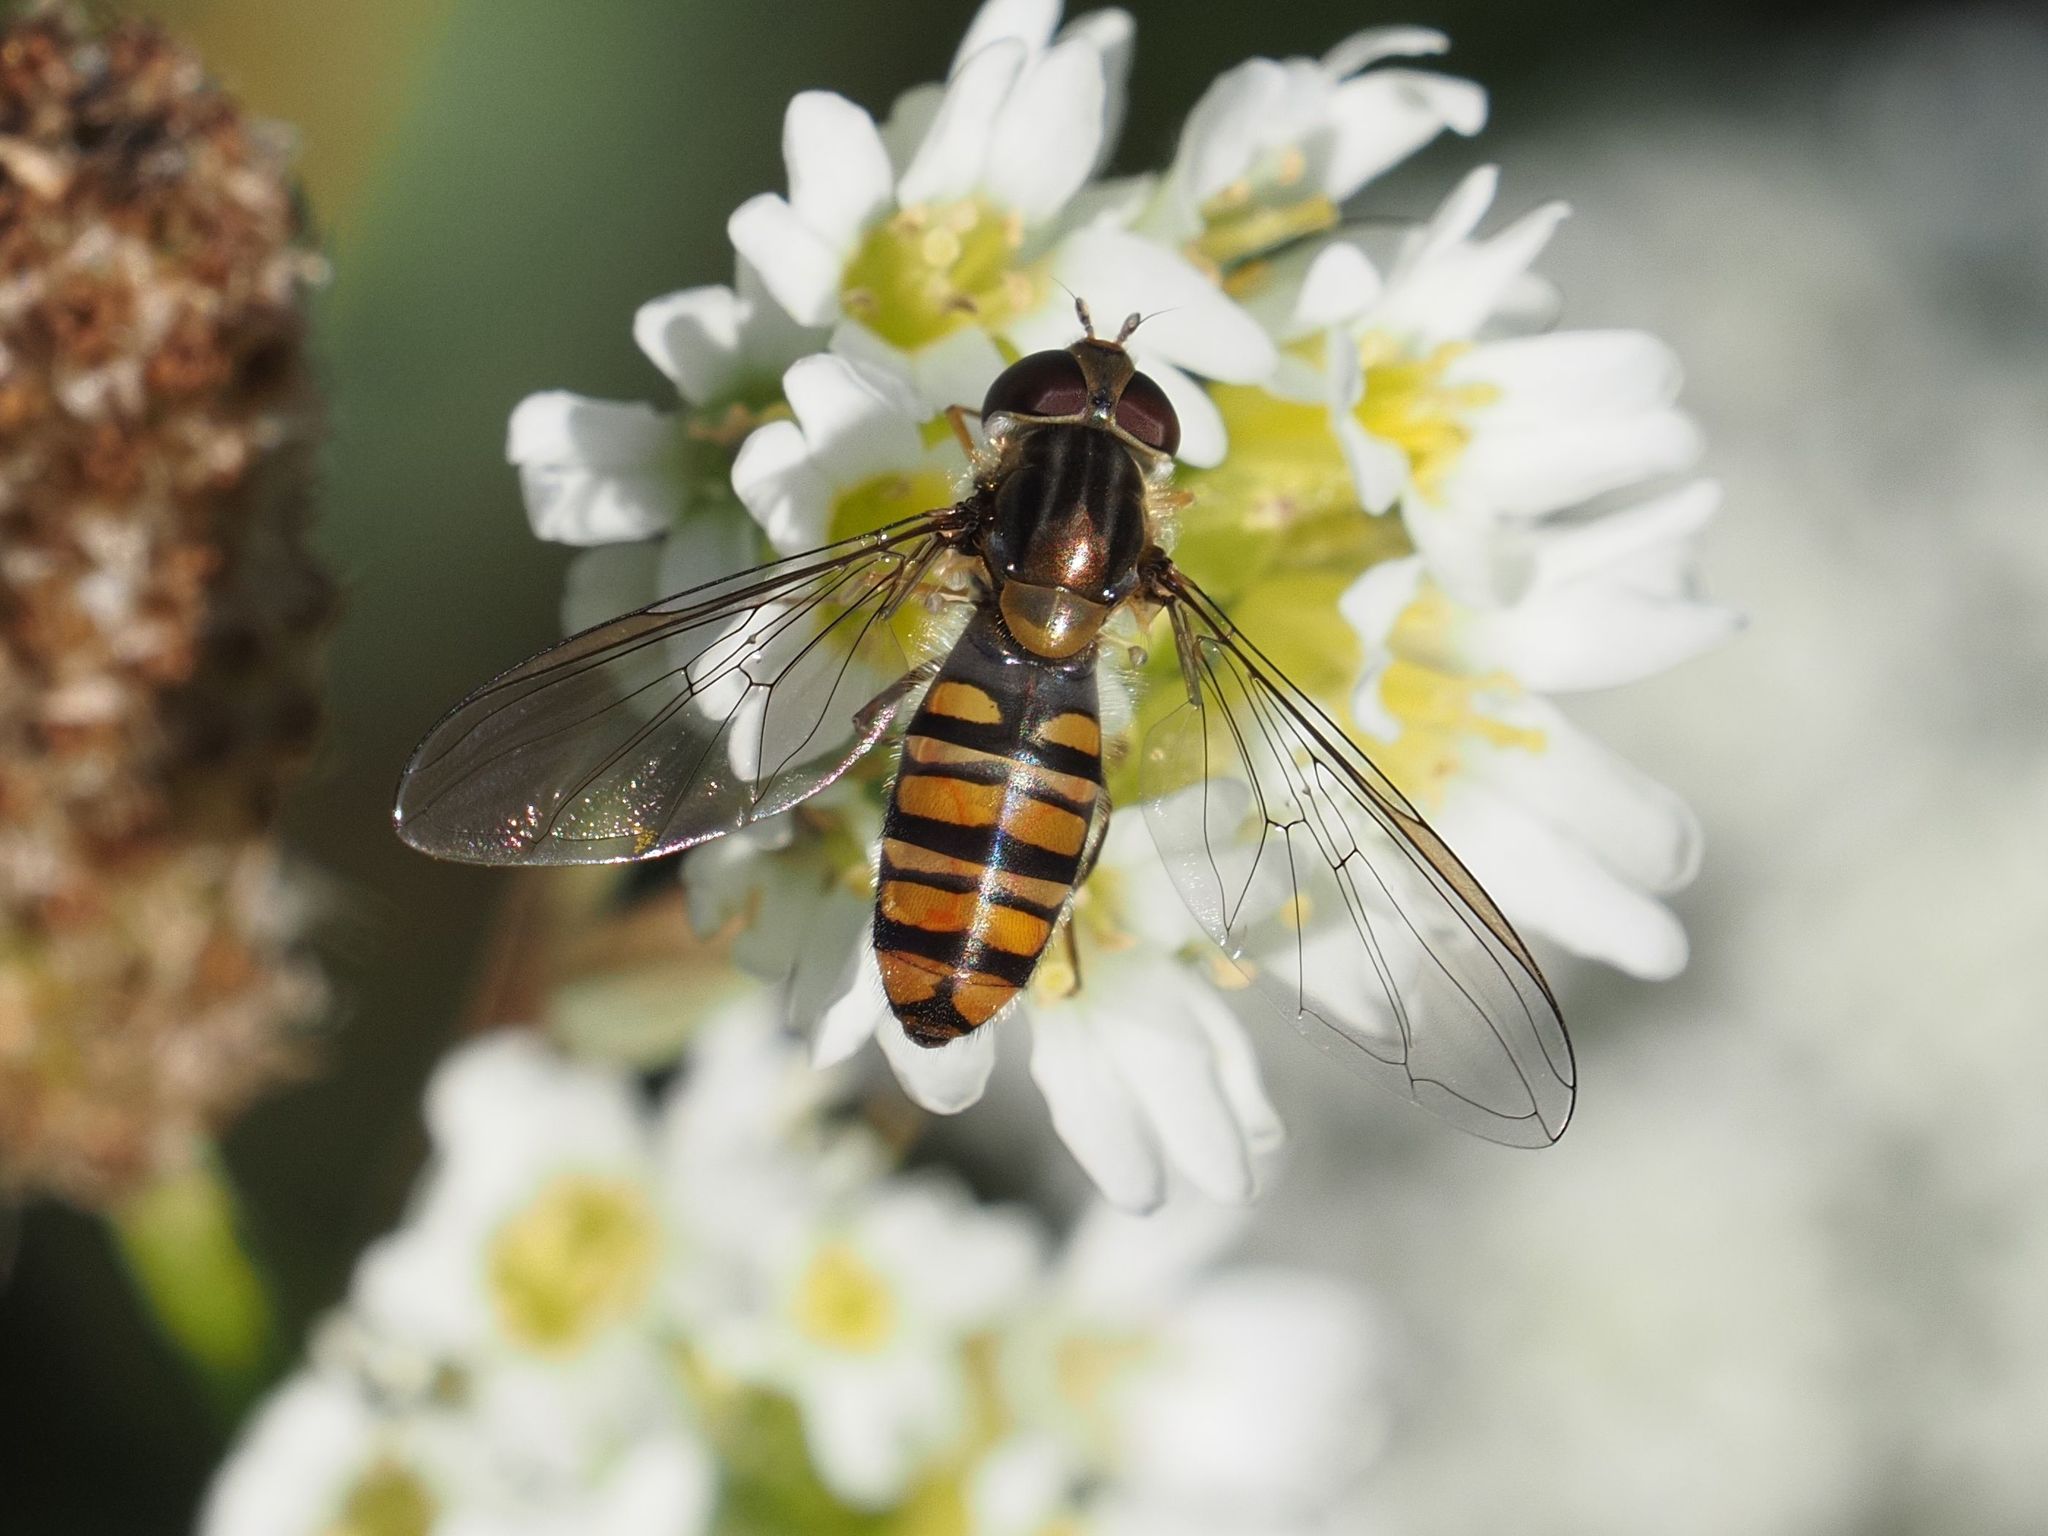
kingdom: Animalia
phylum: Arthropoda
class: Insecta
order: Diptera
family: Syrphidae
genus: Episyrphus
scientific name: Episyrphus balteatus
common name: Marmalade hoverfly
